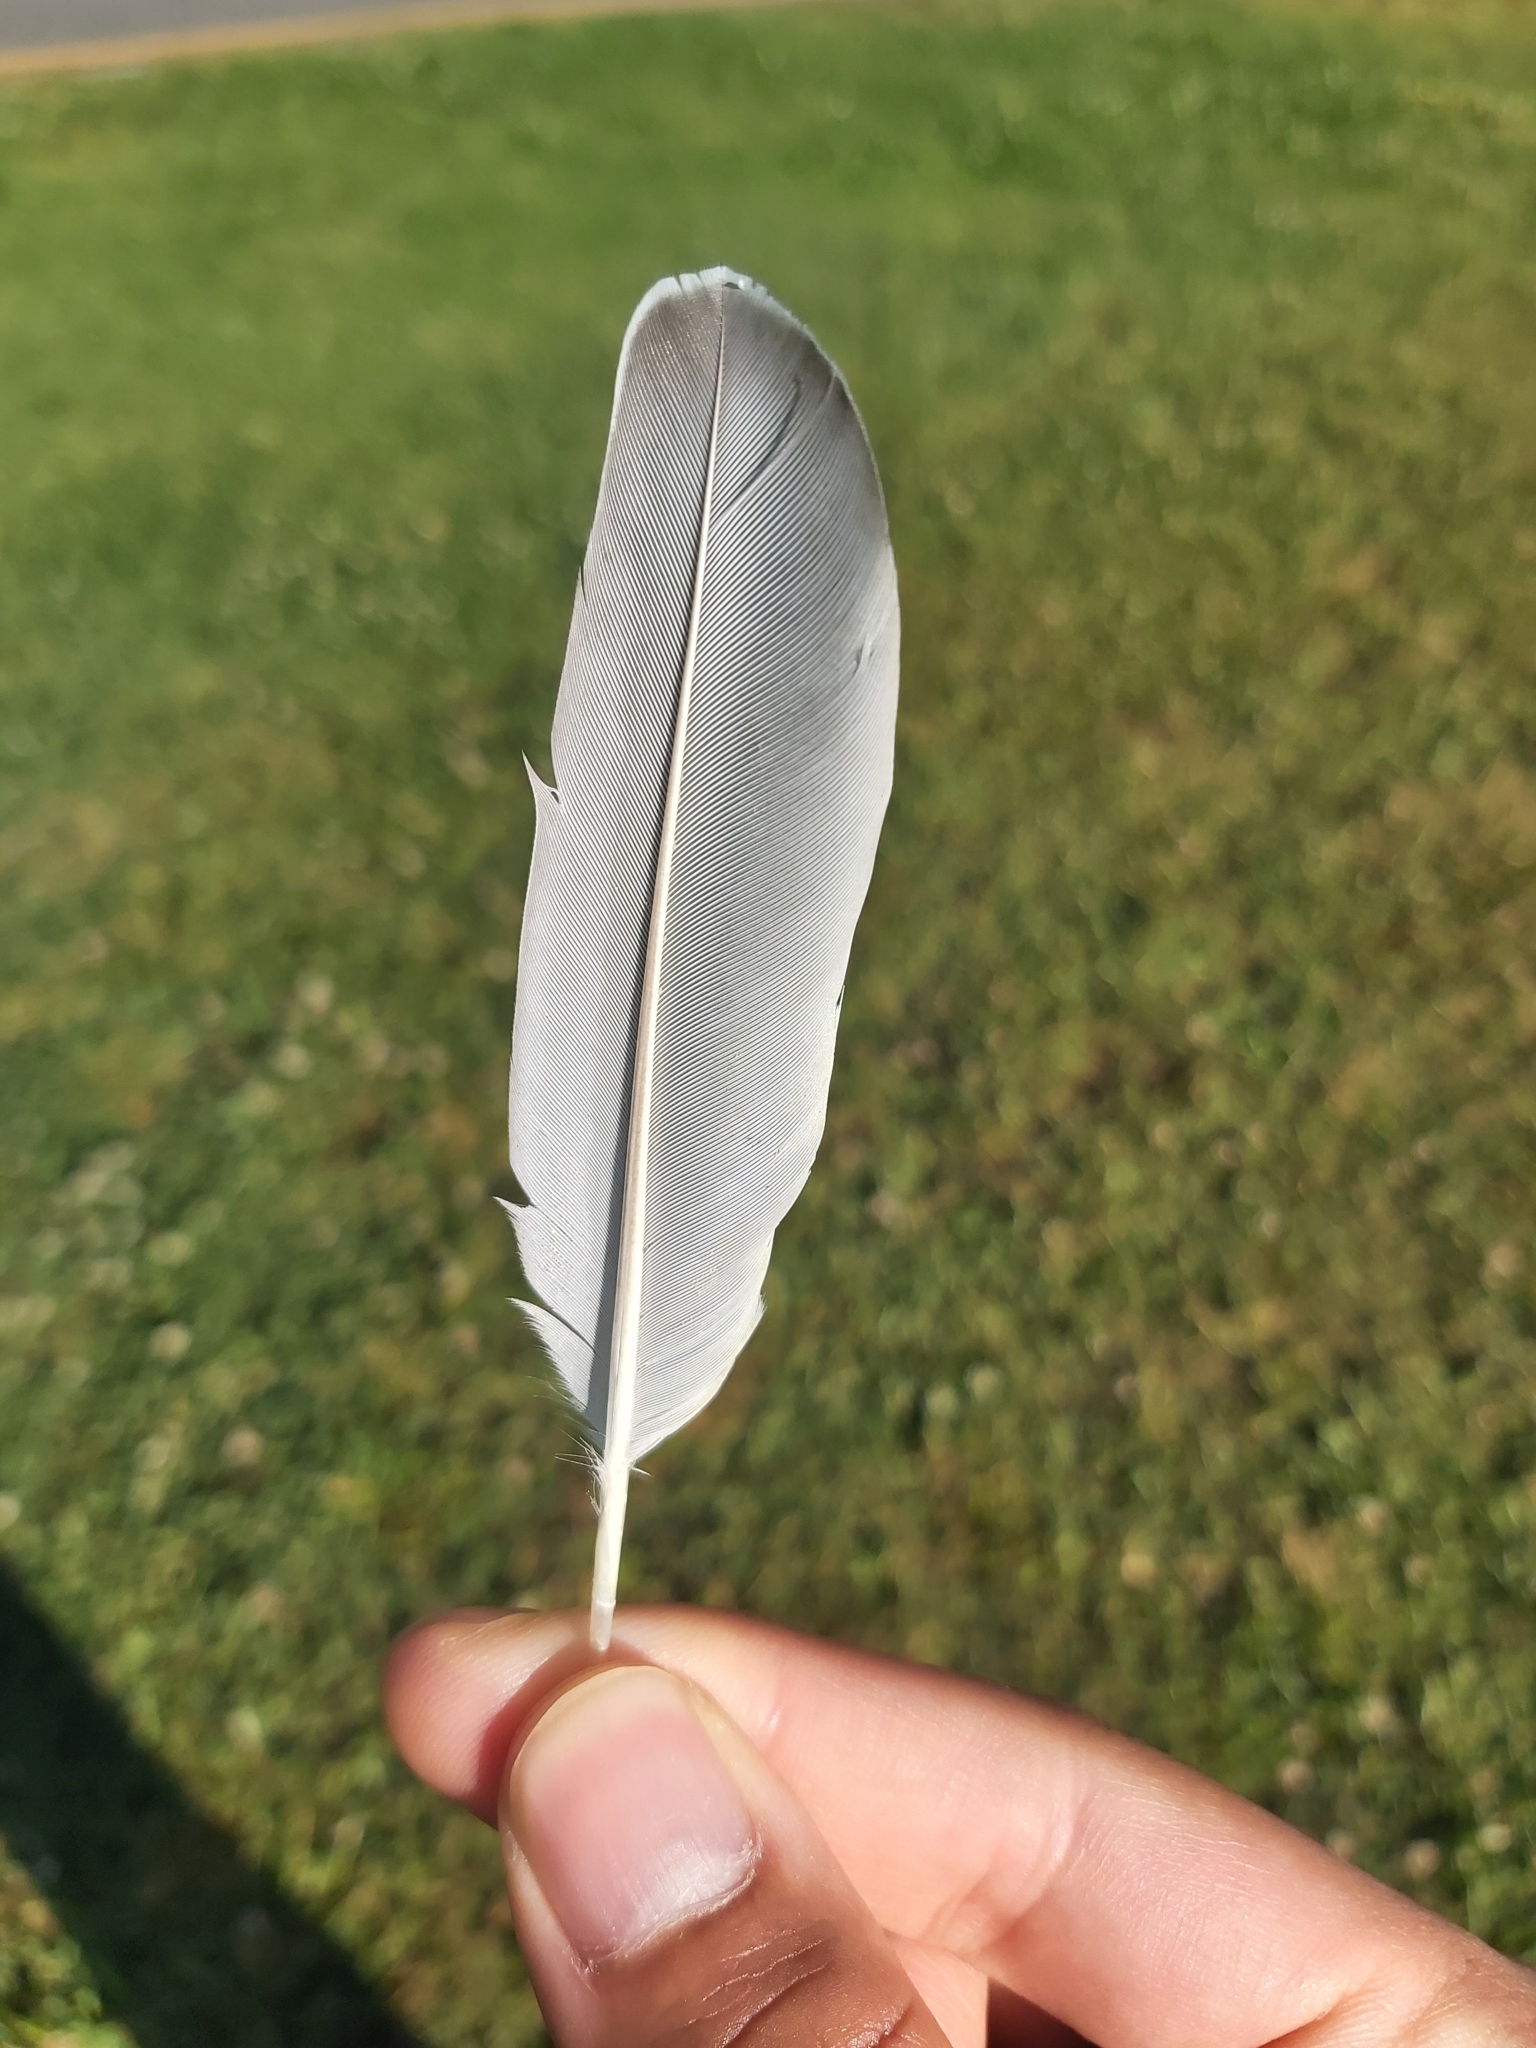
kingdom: Animalia
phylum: Chordata
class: Aves
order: Columbiformes
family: Columbidae
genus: Ocyphaps
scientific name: Ocyphaps lophotes
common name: Crested pigeon
